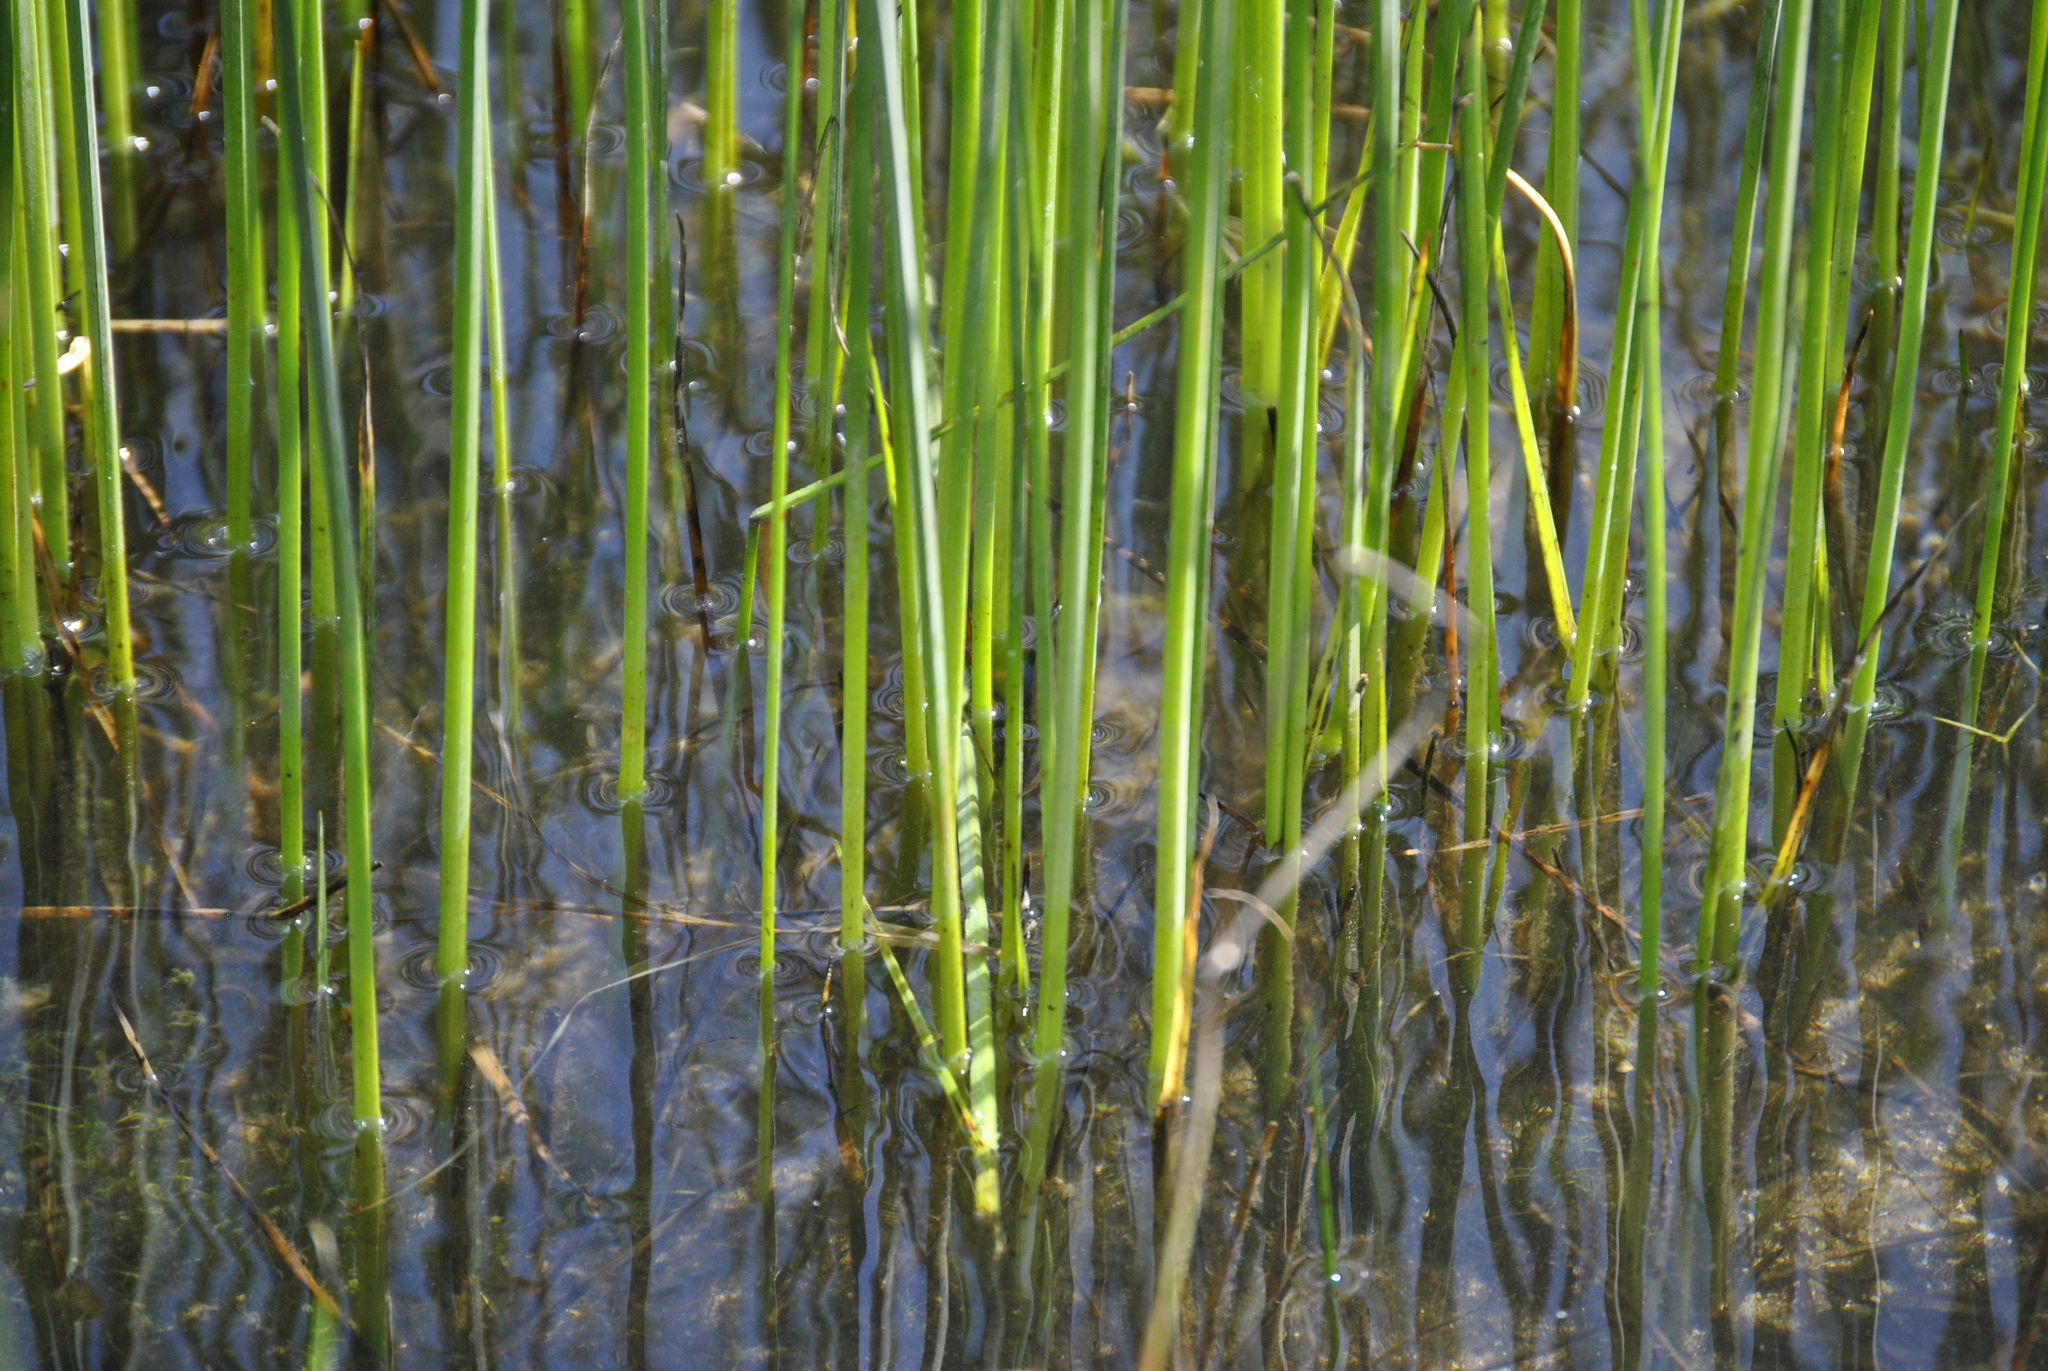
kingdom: Plantae
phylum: Tracheophyta
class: Liliopsida
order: Poales
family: Cyperaceae
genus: Schoenoplectus
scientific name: Schoenoplectus pungens
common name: Sharp club-rush
